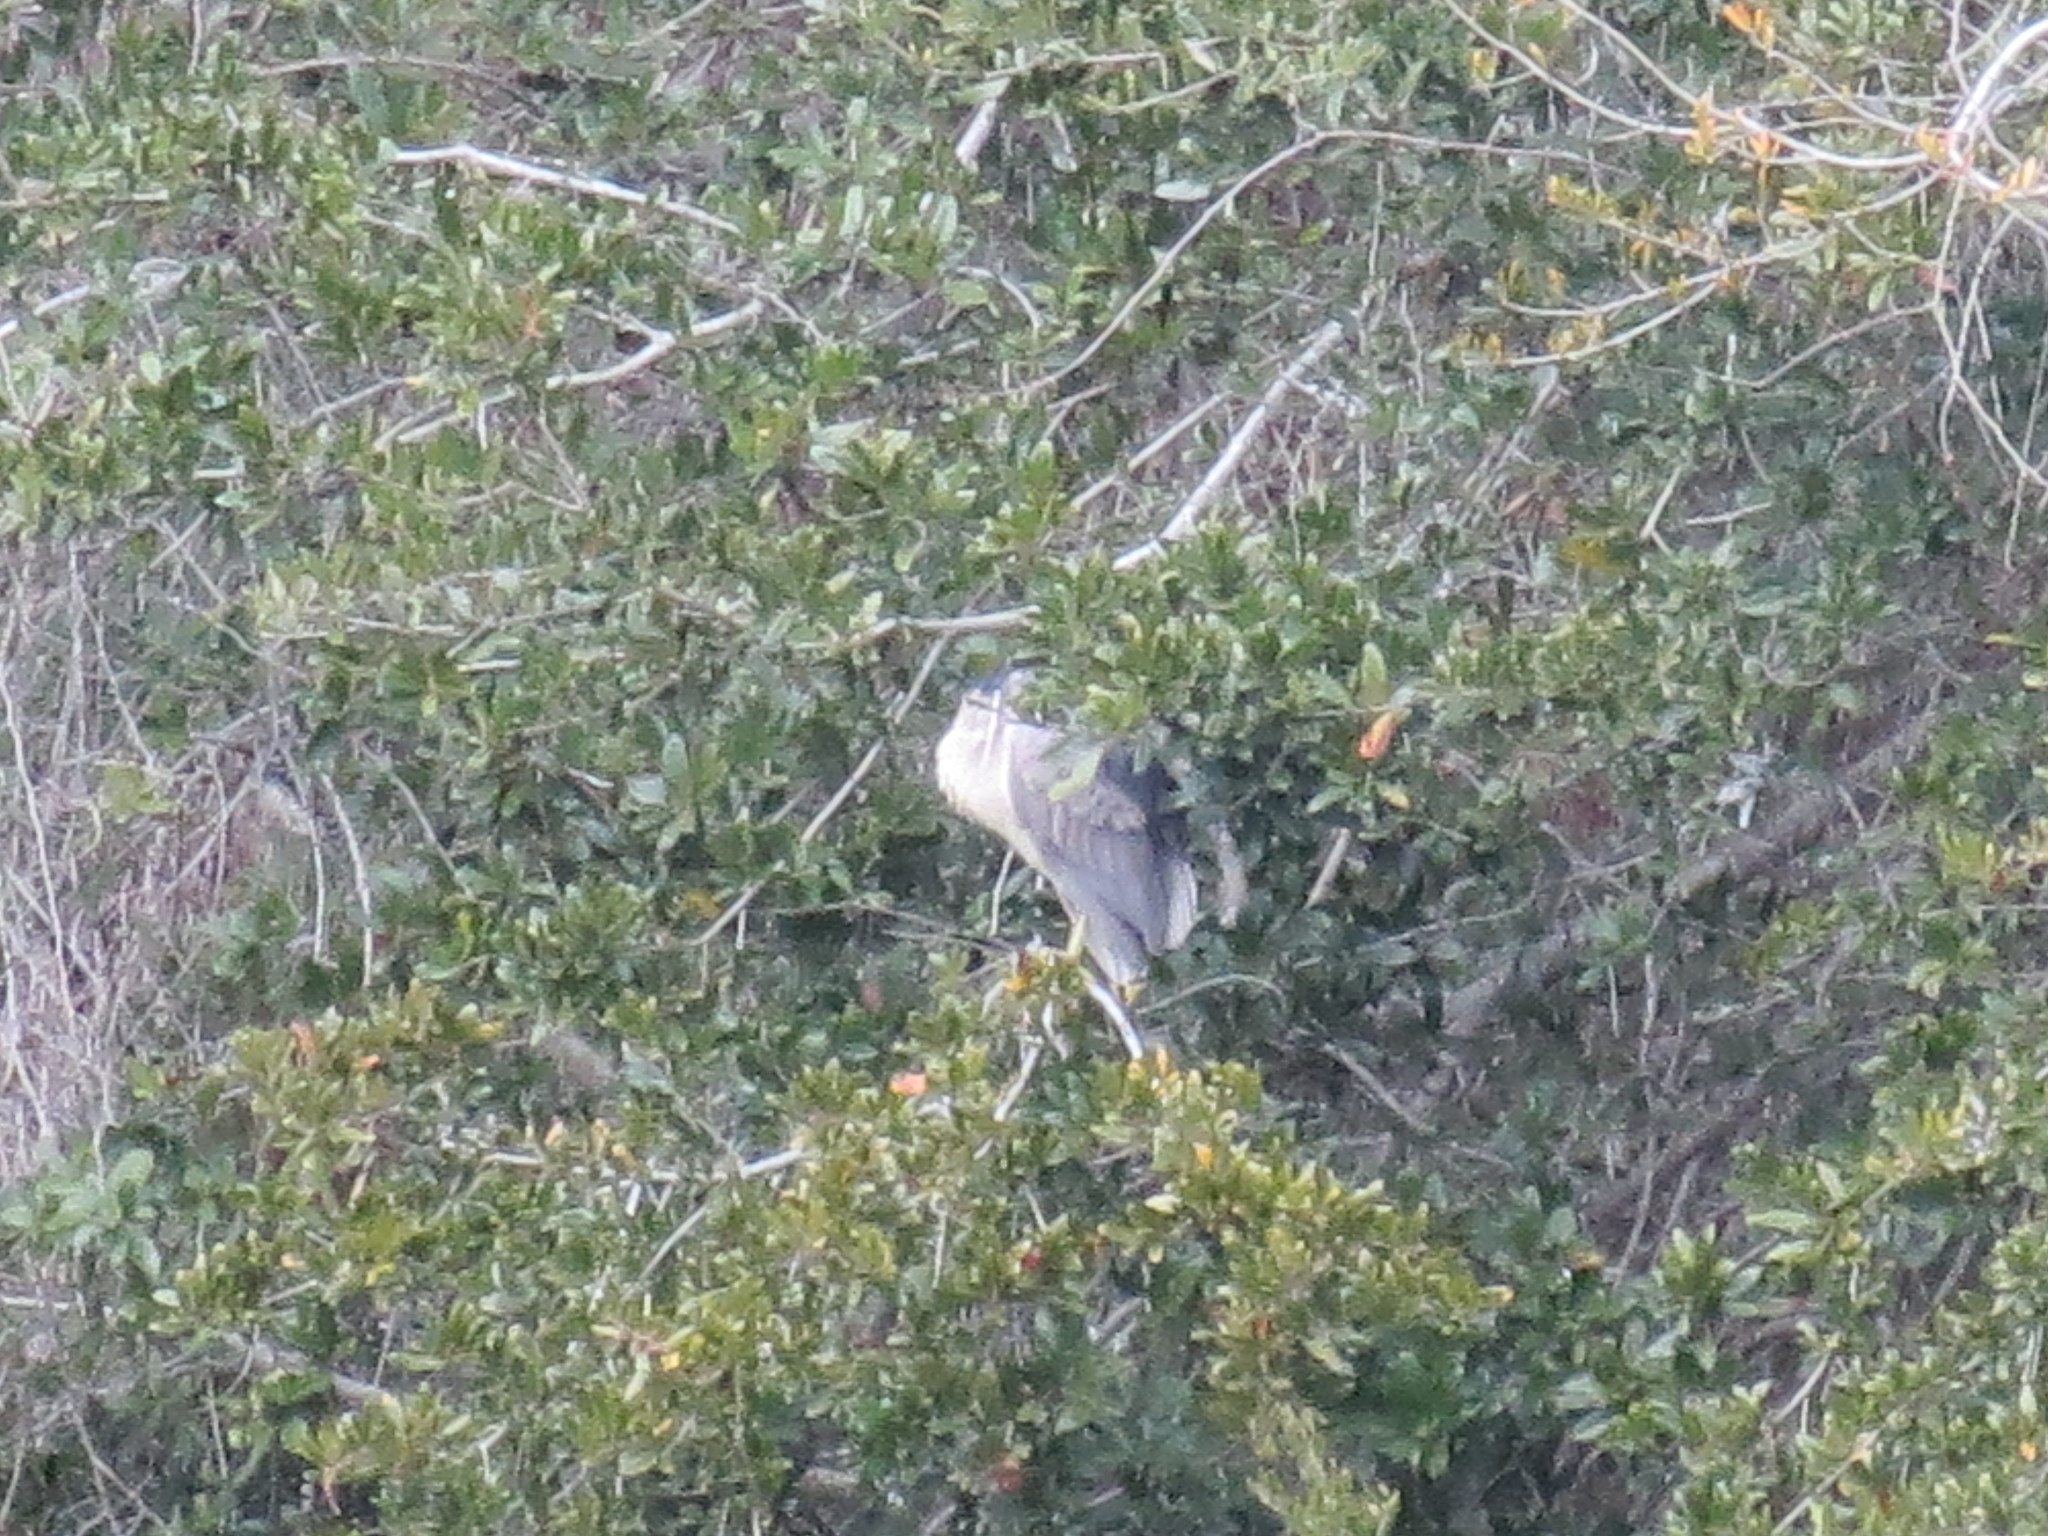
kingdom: Animalia
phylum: Chordata
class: Aves
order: Pelecaniformes
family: Ardeidae
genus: Nycticorax
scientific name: Nycticorax nycticorax
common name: Black-crowned night heron
